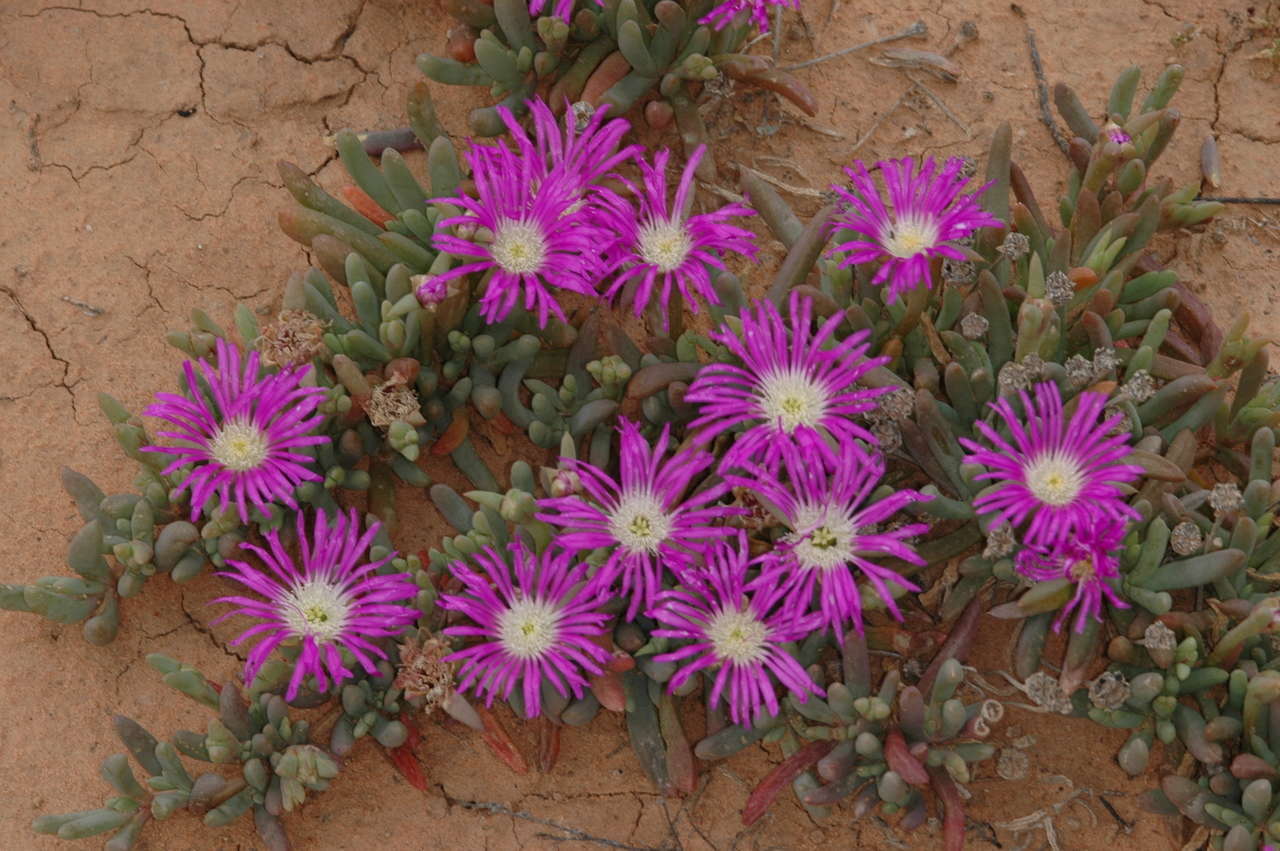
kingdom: Plantae
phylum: Tracheophyta
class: Magnoliopsida
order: Caryophyllales
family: Aizoaceae
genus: Disphyma
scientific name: Disphyma clavellatum
